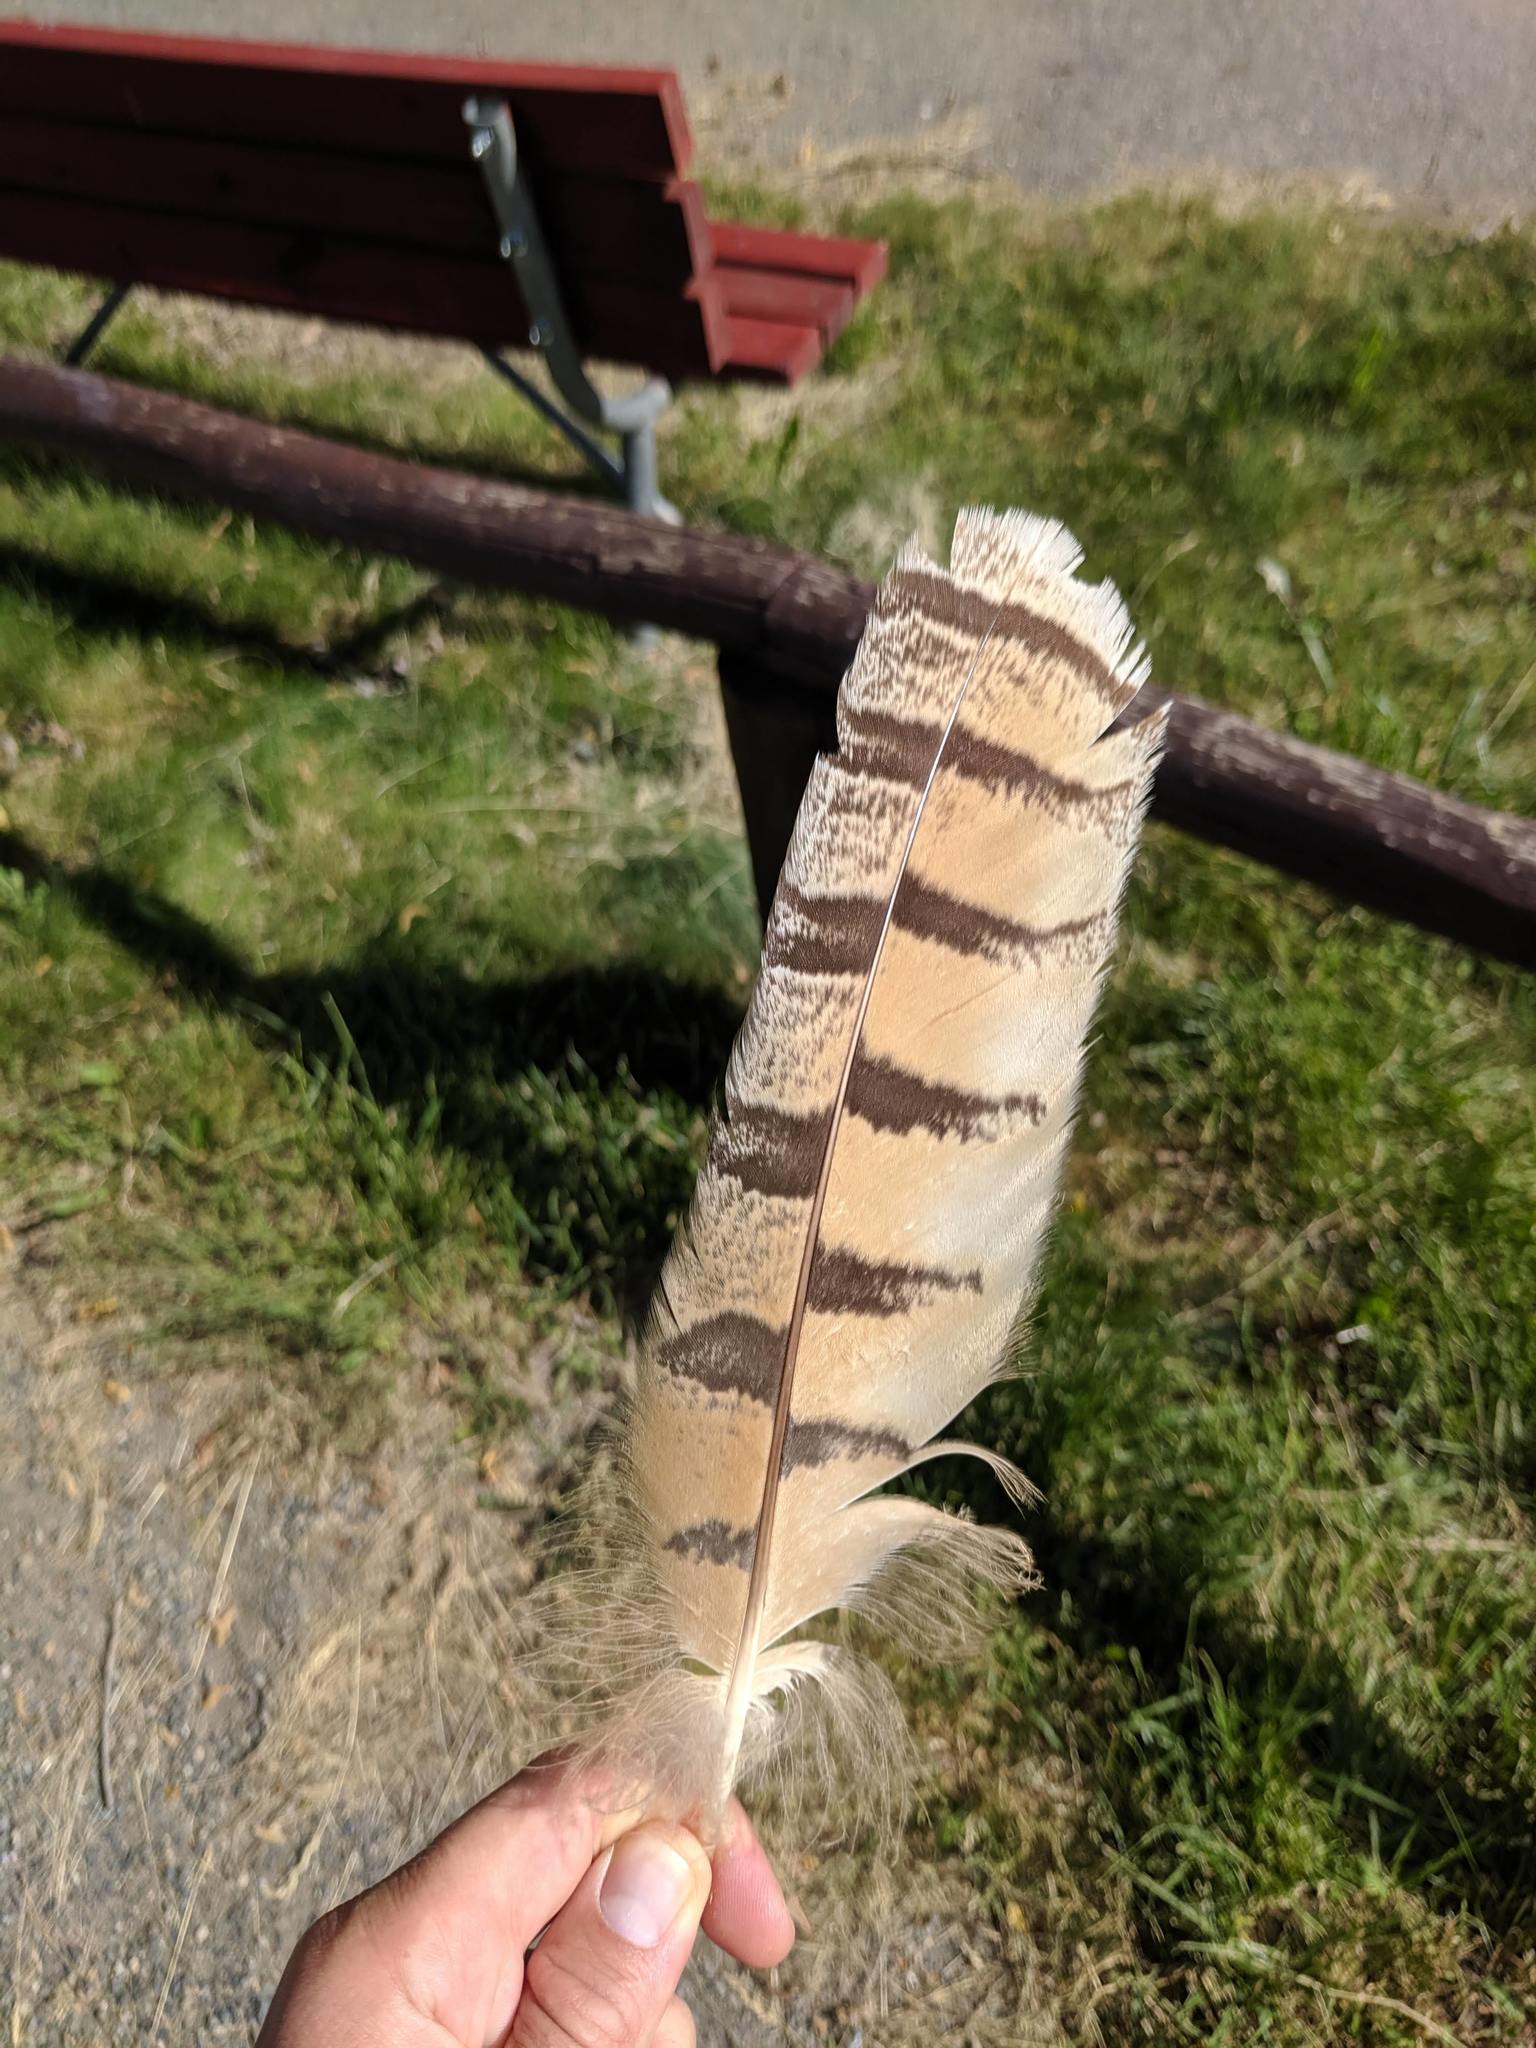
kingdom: Animalia
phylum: Chordata
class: Aves
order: Strigiformes
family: Strigidae
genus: Bubo
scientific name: Bubo virginianus
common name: Great horned owl
